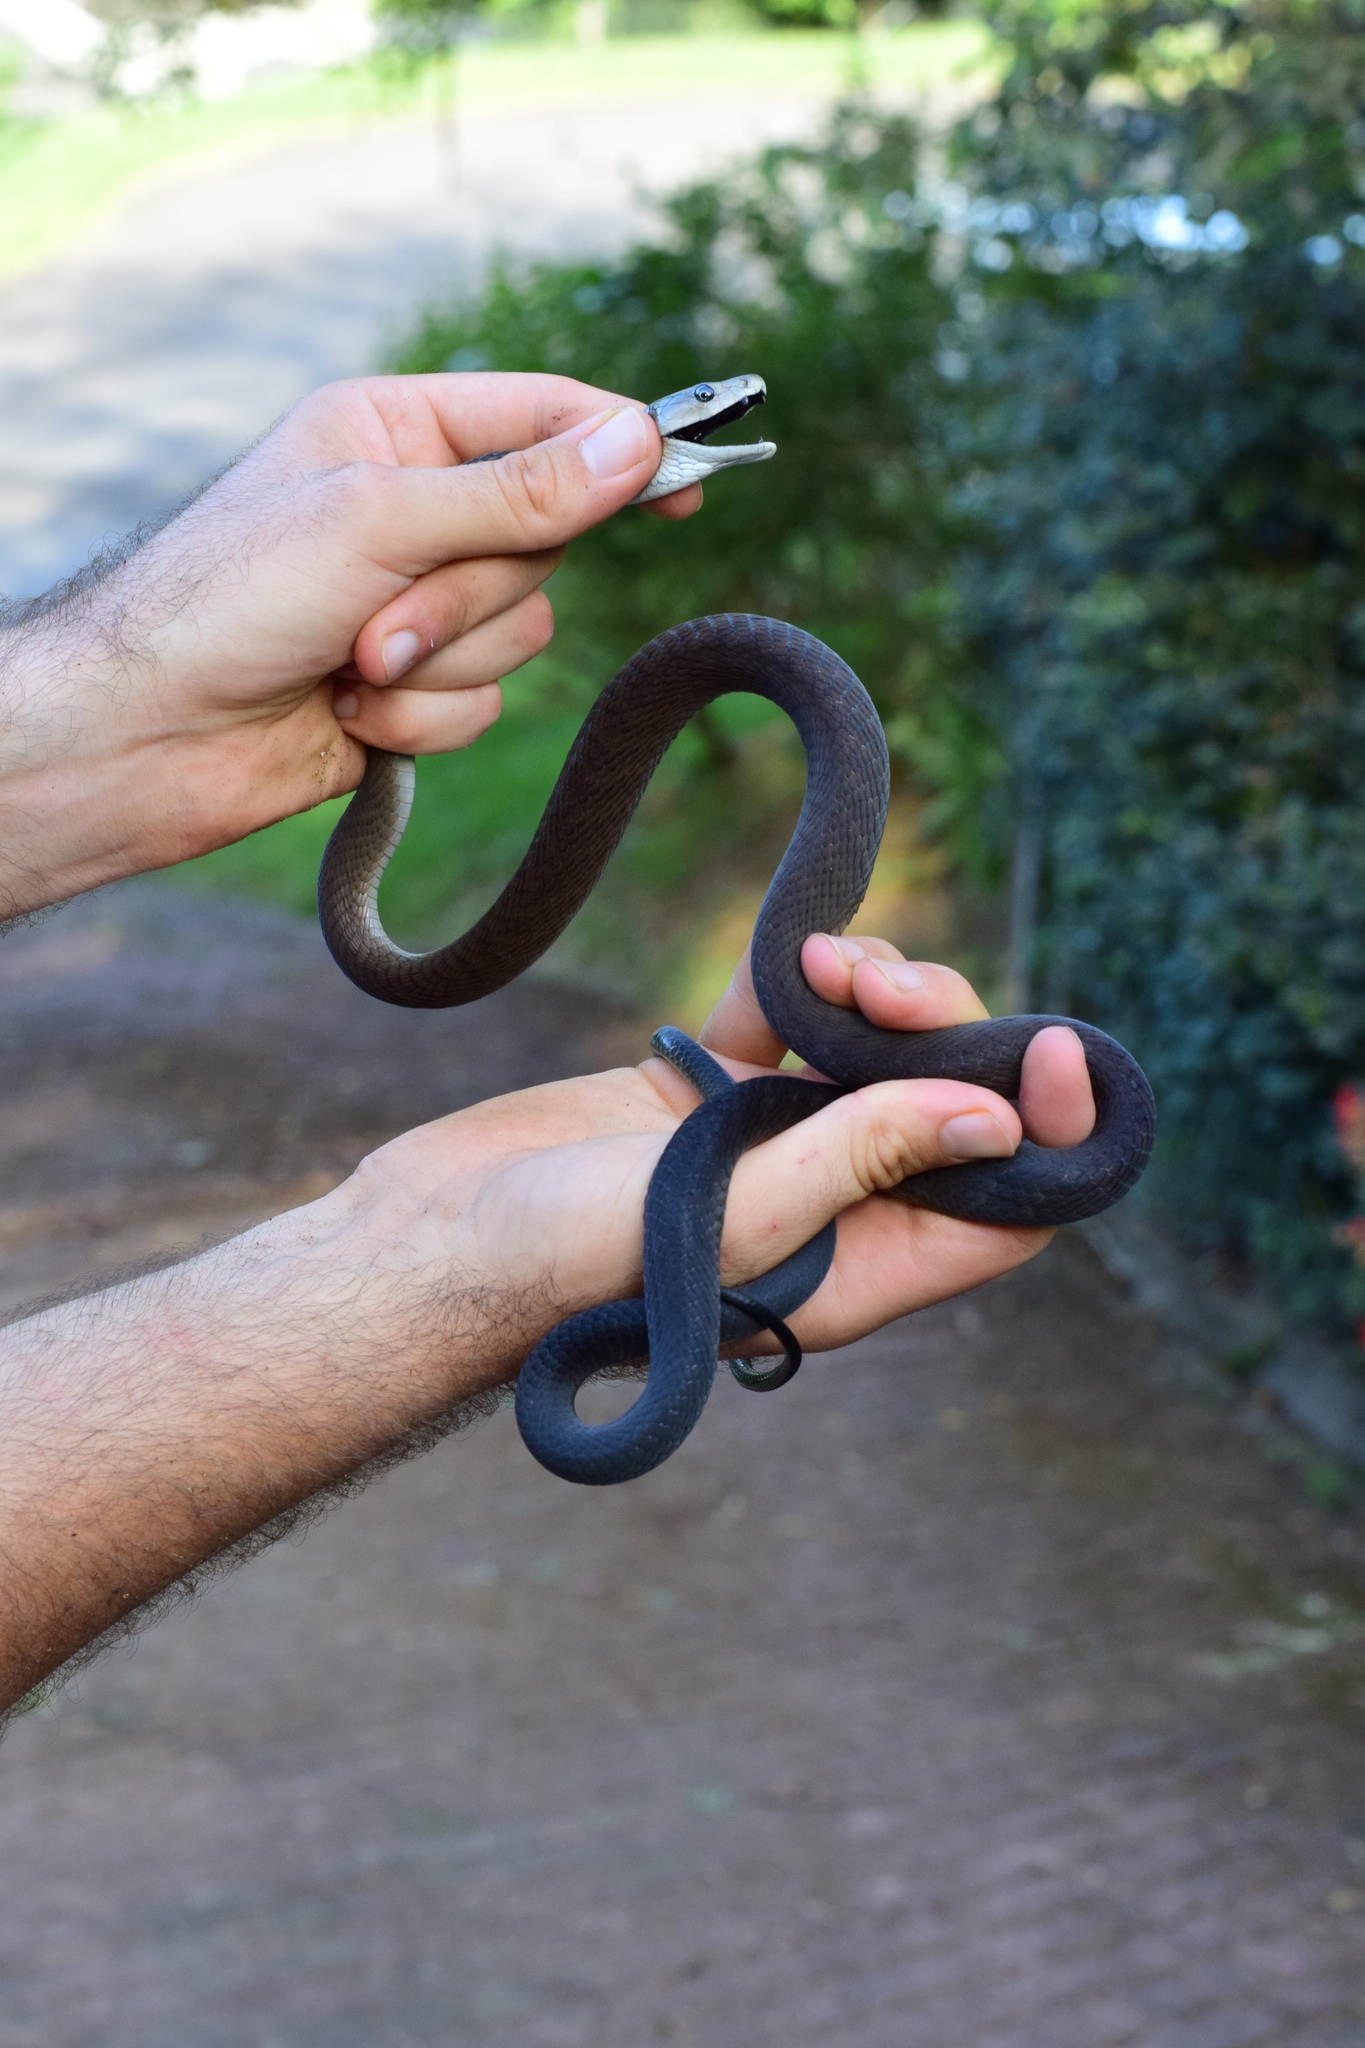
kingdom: Animalia
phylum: Chordata
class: Squamata
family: Elapidae
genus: Dendroaspis
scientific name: Dendroaspis polylepis
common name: Black mamba
